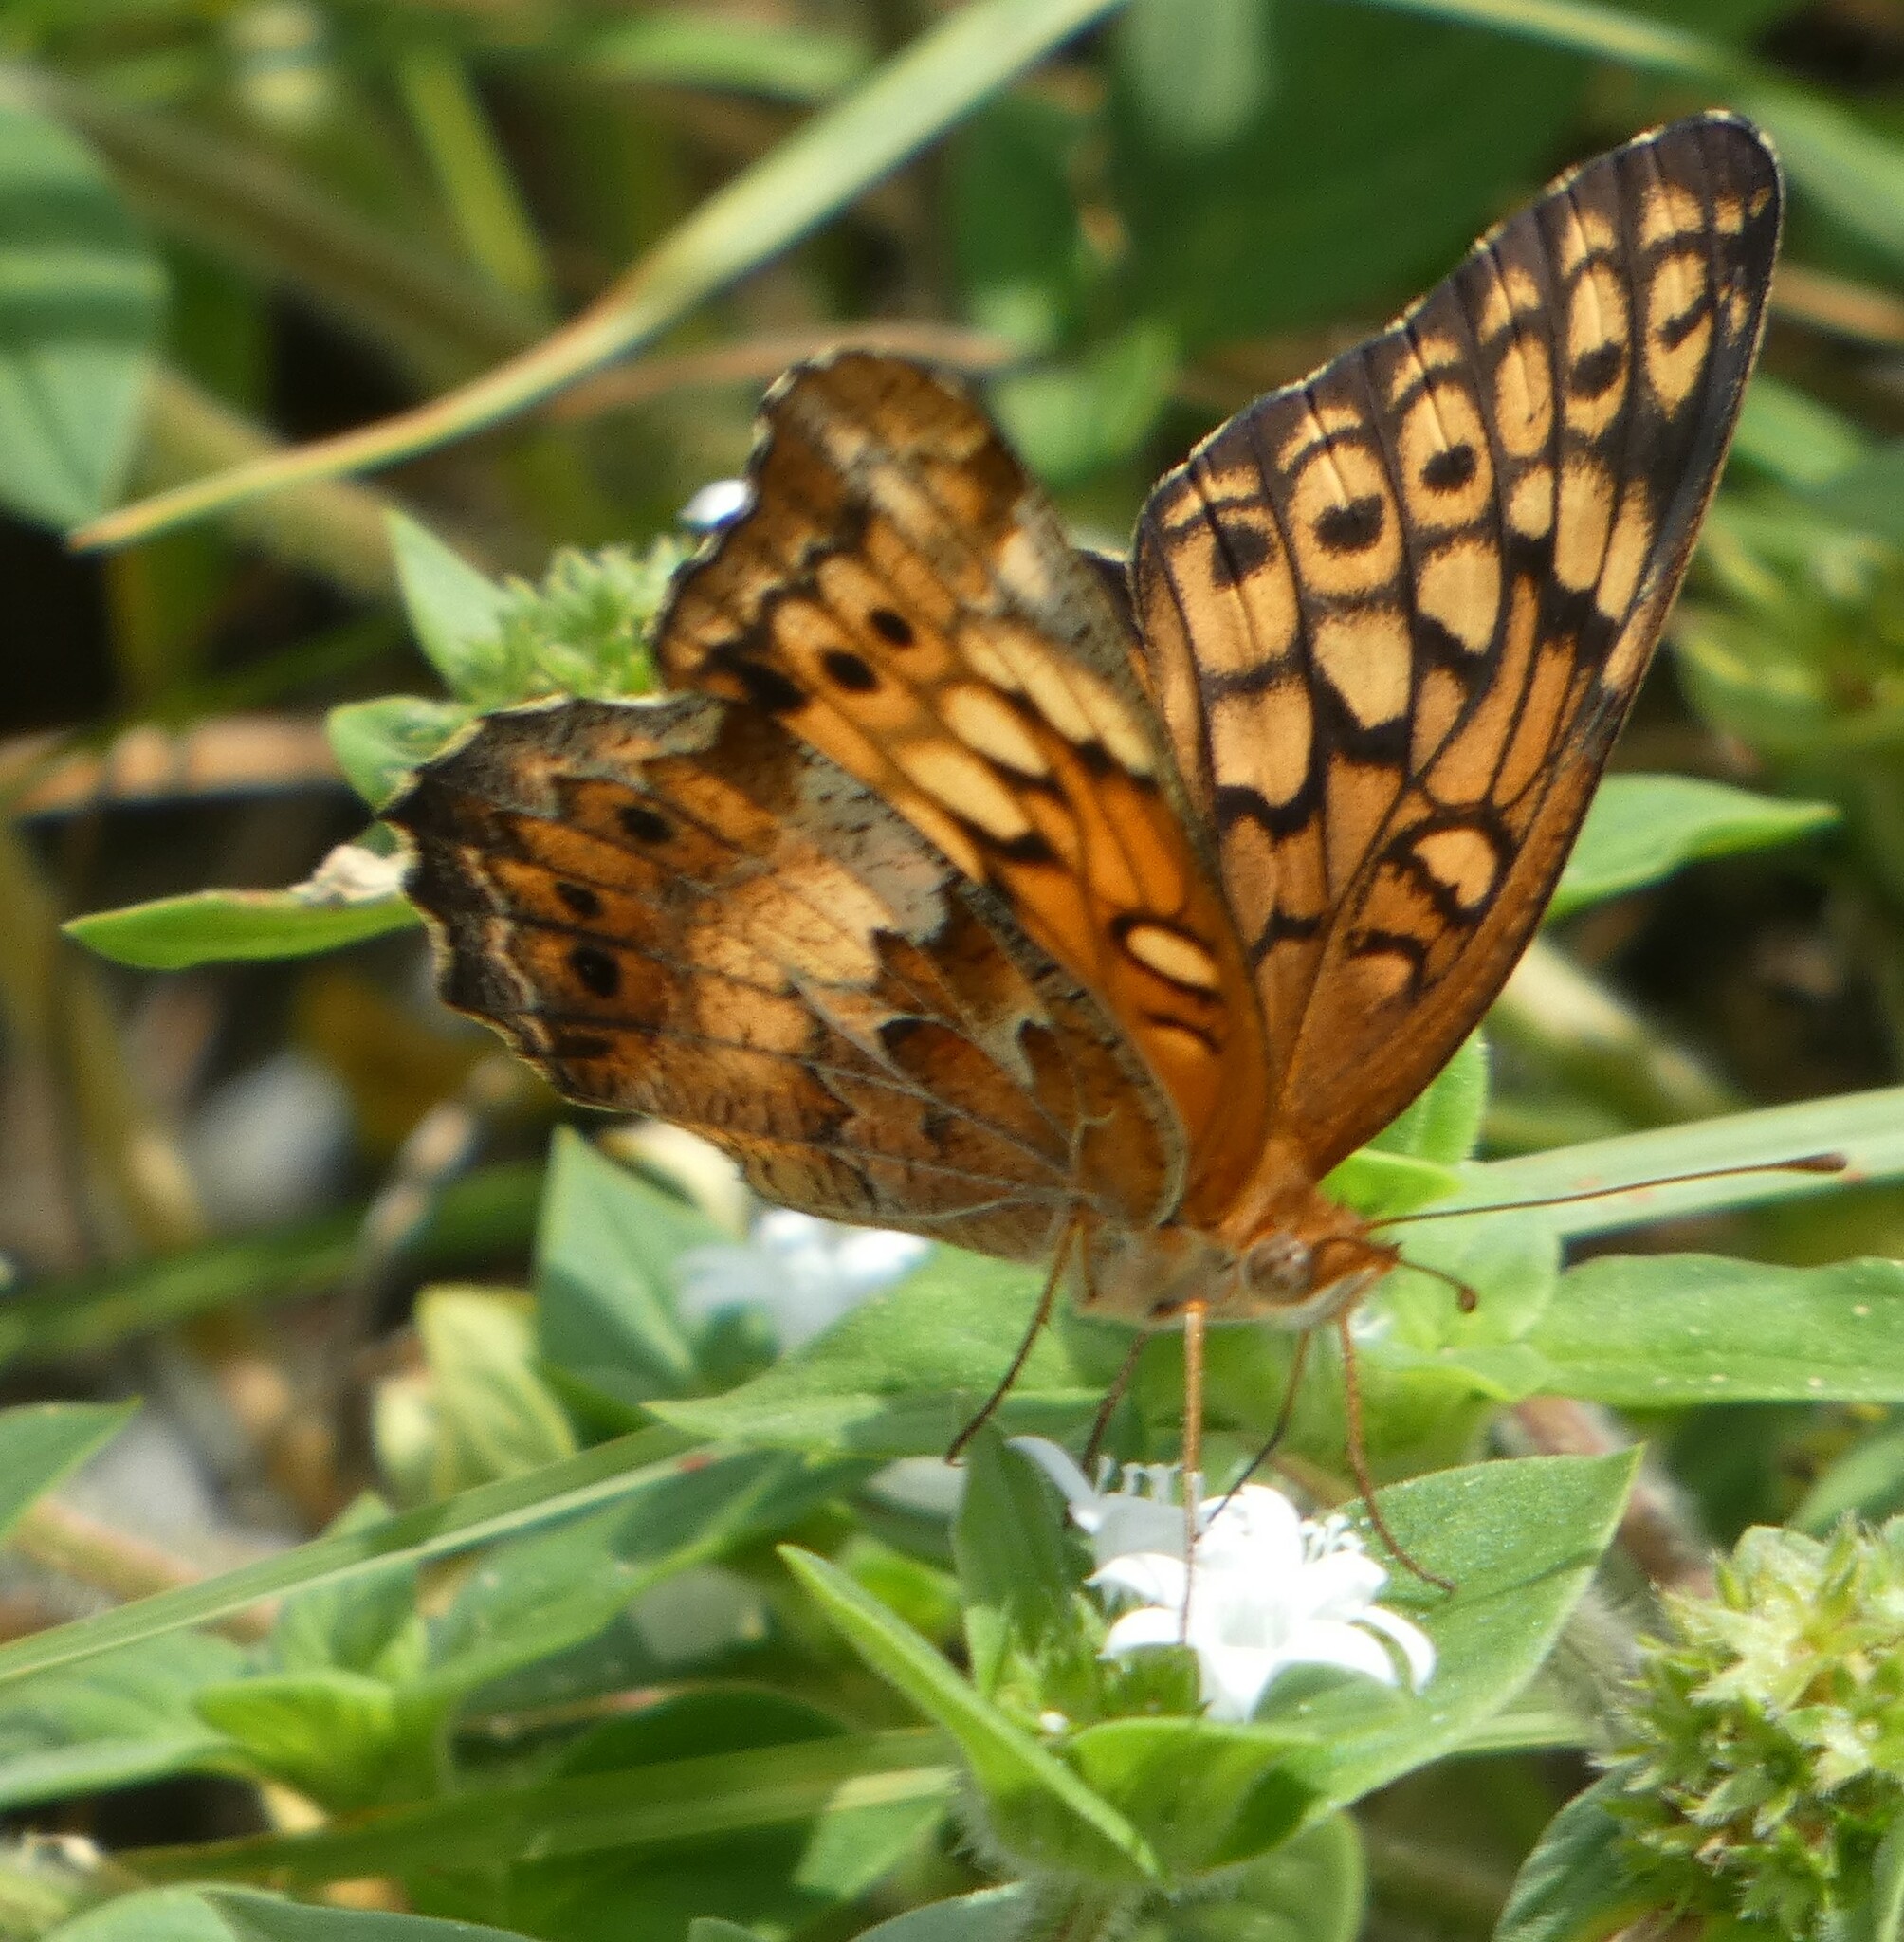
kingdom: Animalia
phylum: Arthropoda
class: Insecta
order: Lepidoptera
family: Nymphalidae
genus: Euptoieta
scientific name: Euptoieta claudia
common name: Variegated fritillary
